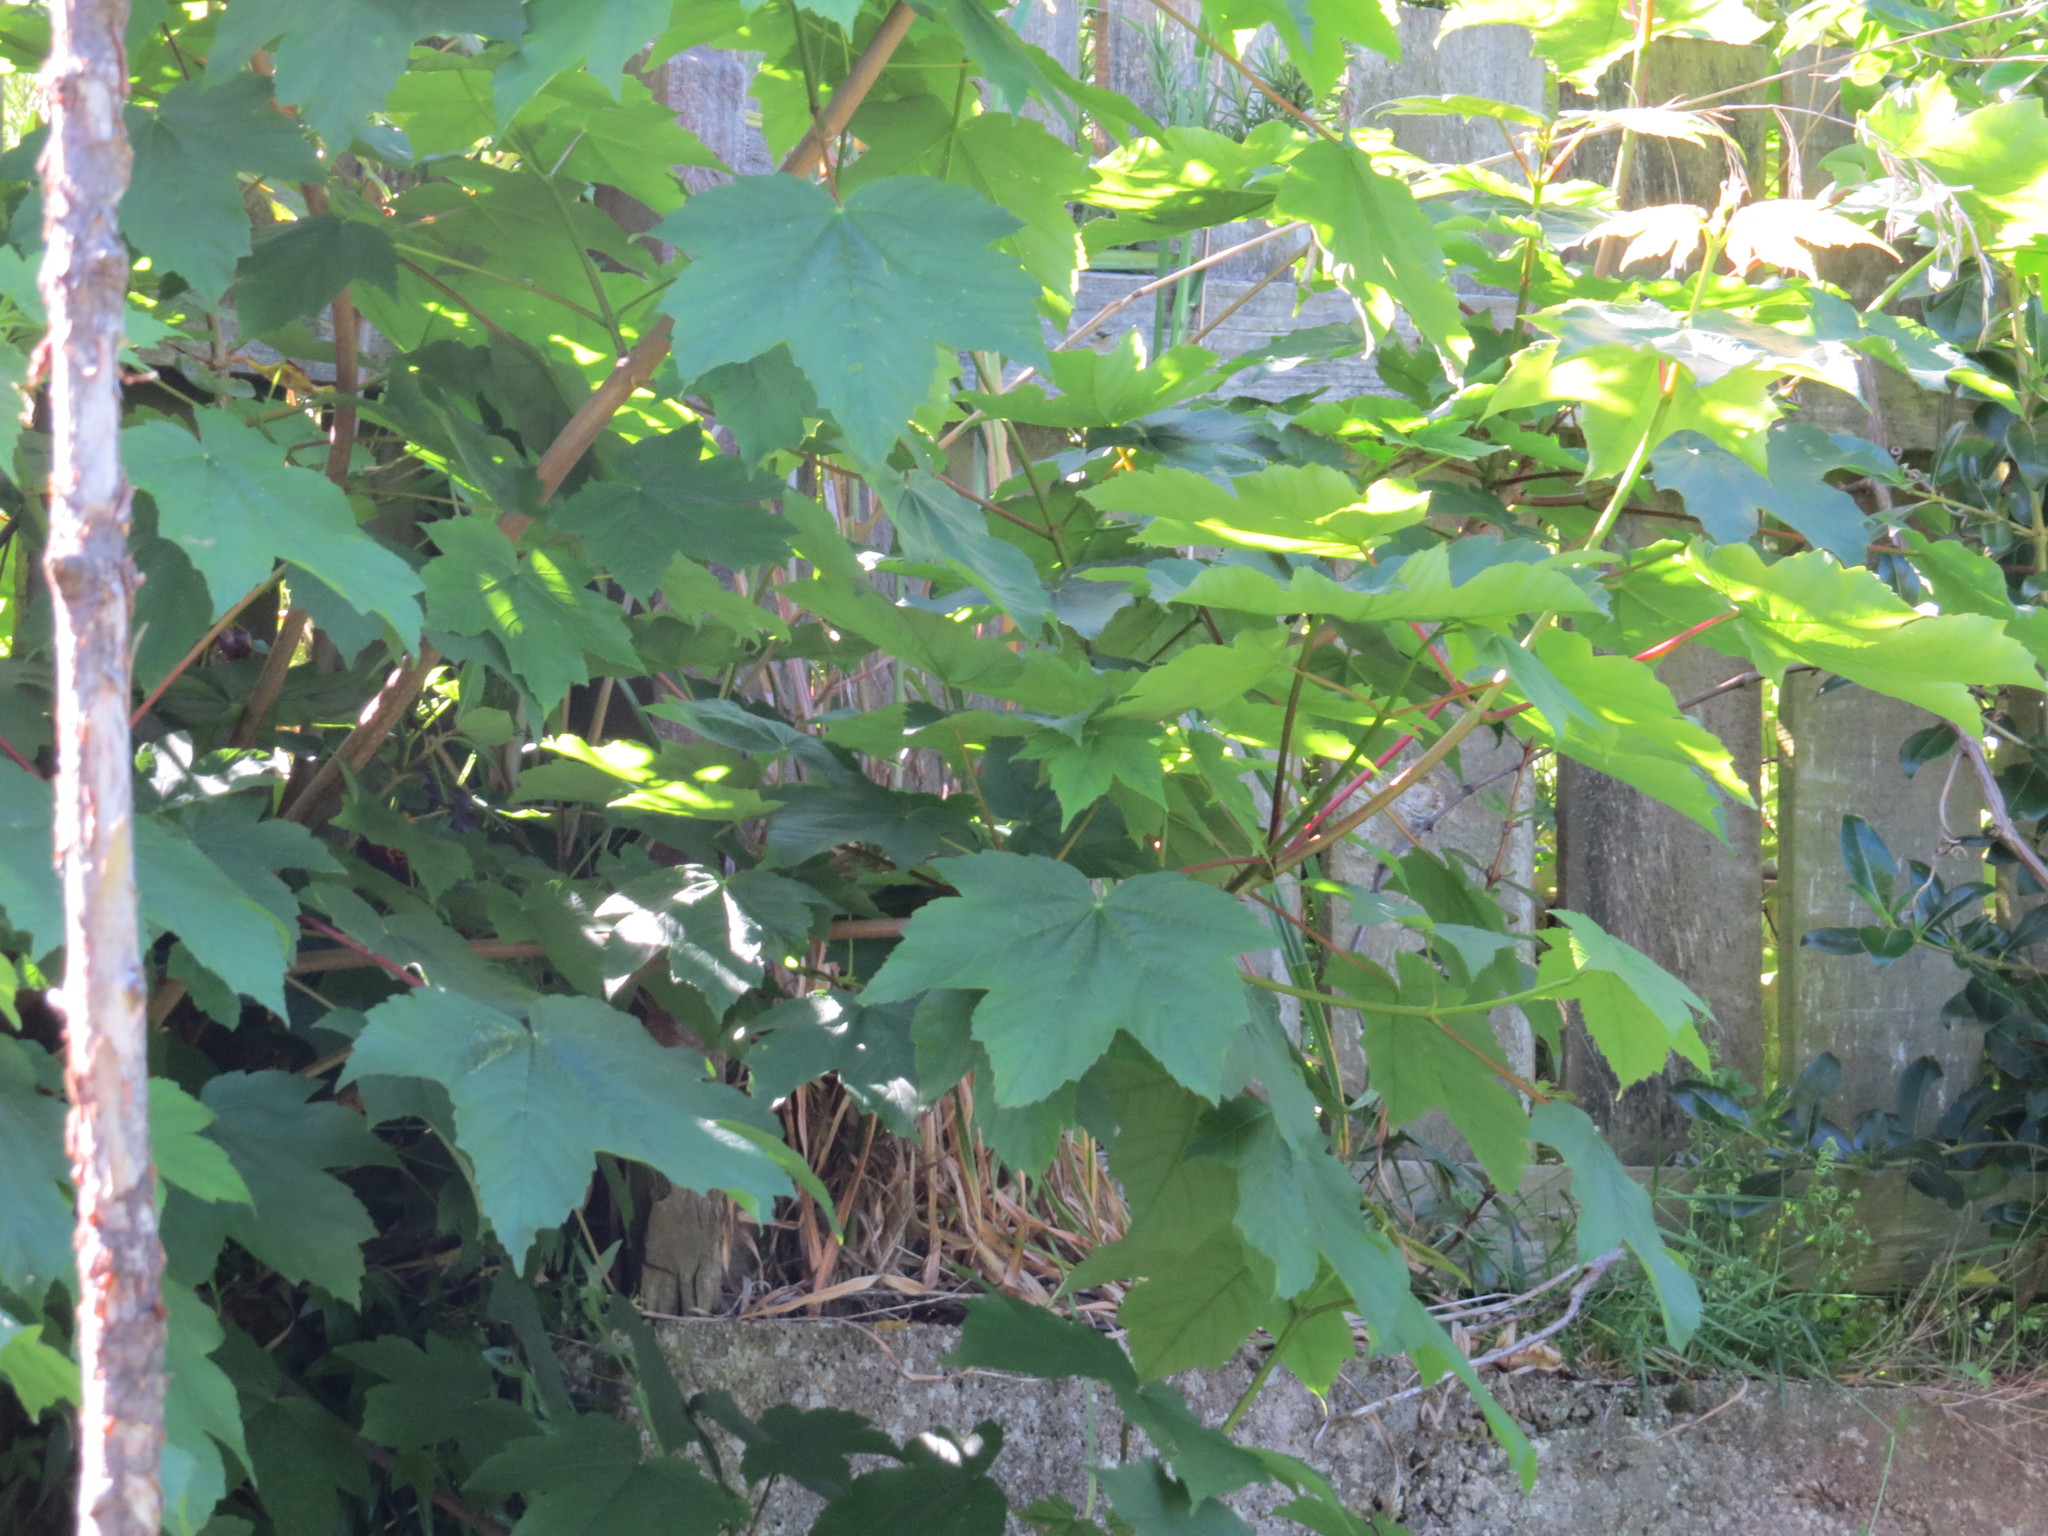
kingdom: Plantae
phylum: Tracheophyta
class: Magnoliopsida
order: Sapindales
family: Sapindaceae
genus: Acer
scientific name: Acer pseudoplatanus
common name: Sycamore
